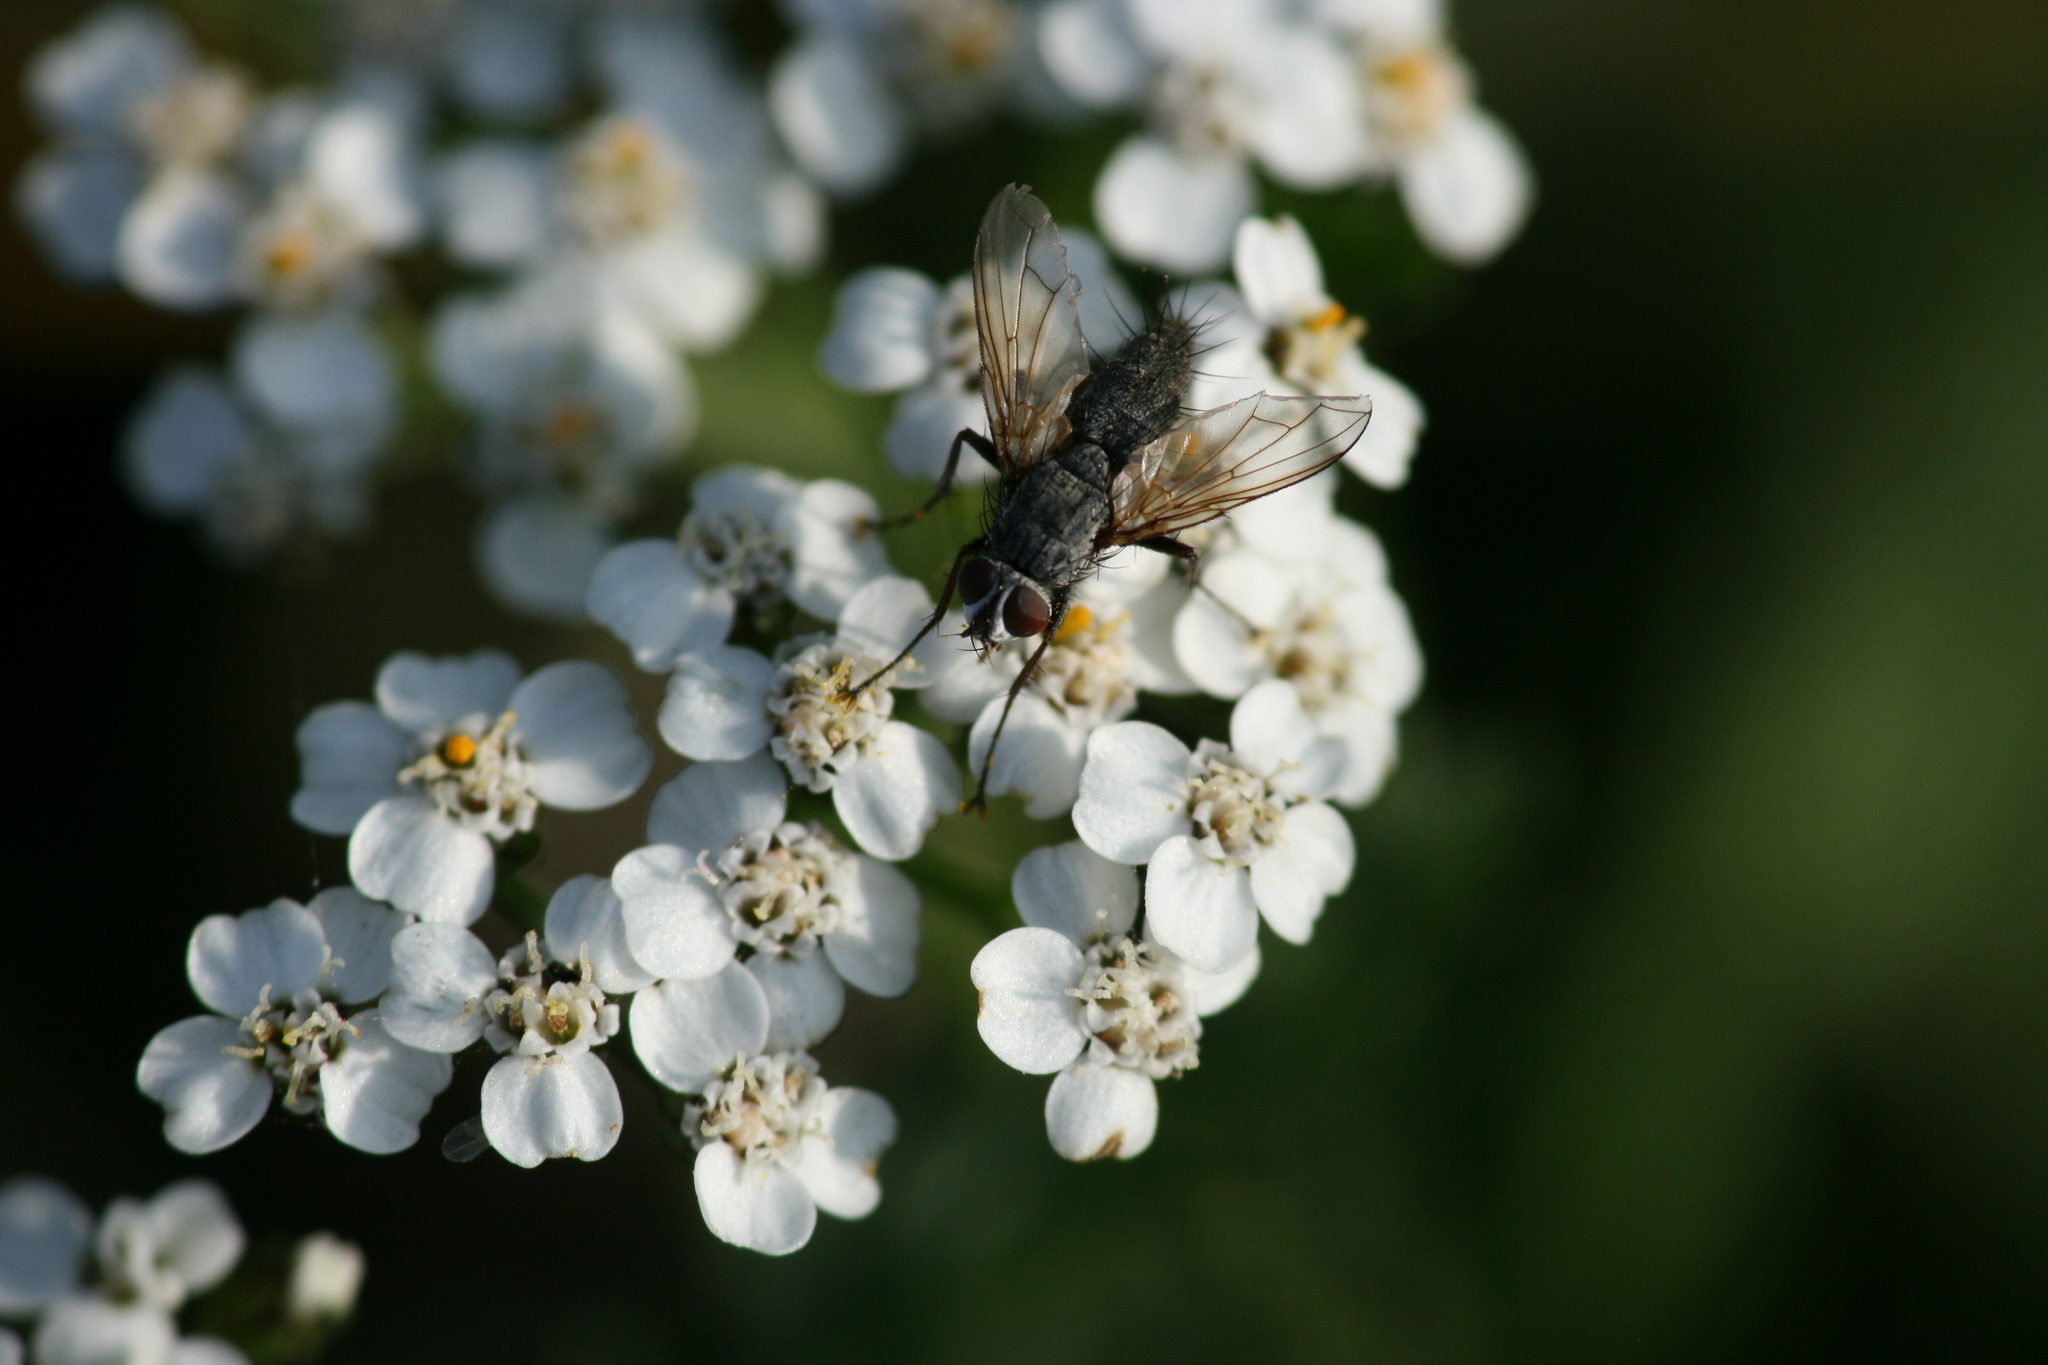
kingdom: Animalia
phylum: Arthropoda
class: Insecta
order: Diptera
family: Tachinidae
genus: Dinera
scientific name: Dinera grisescens
